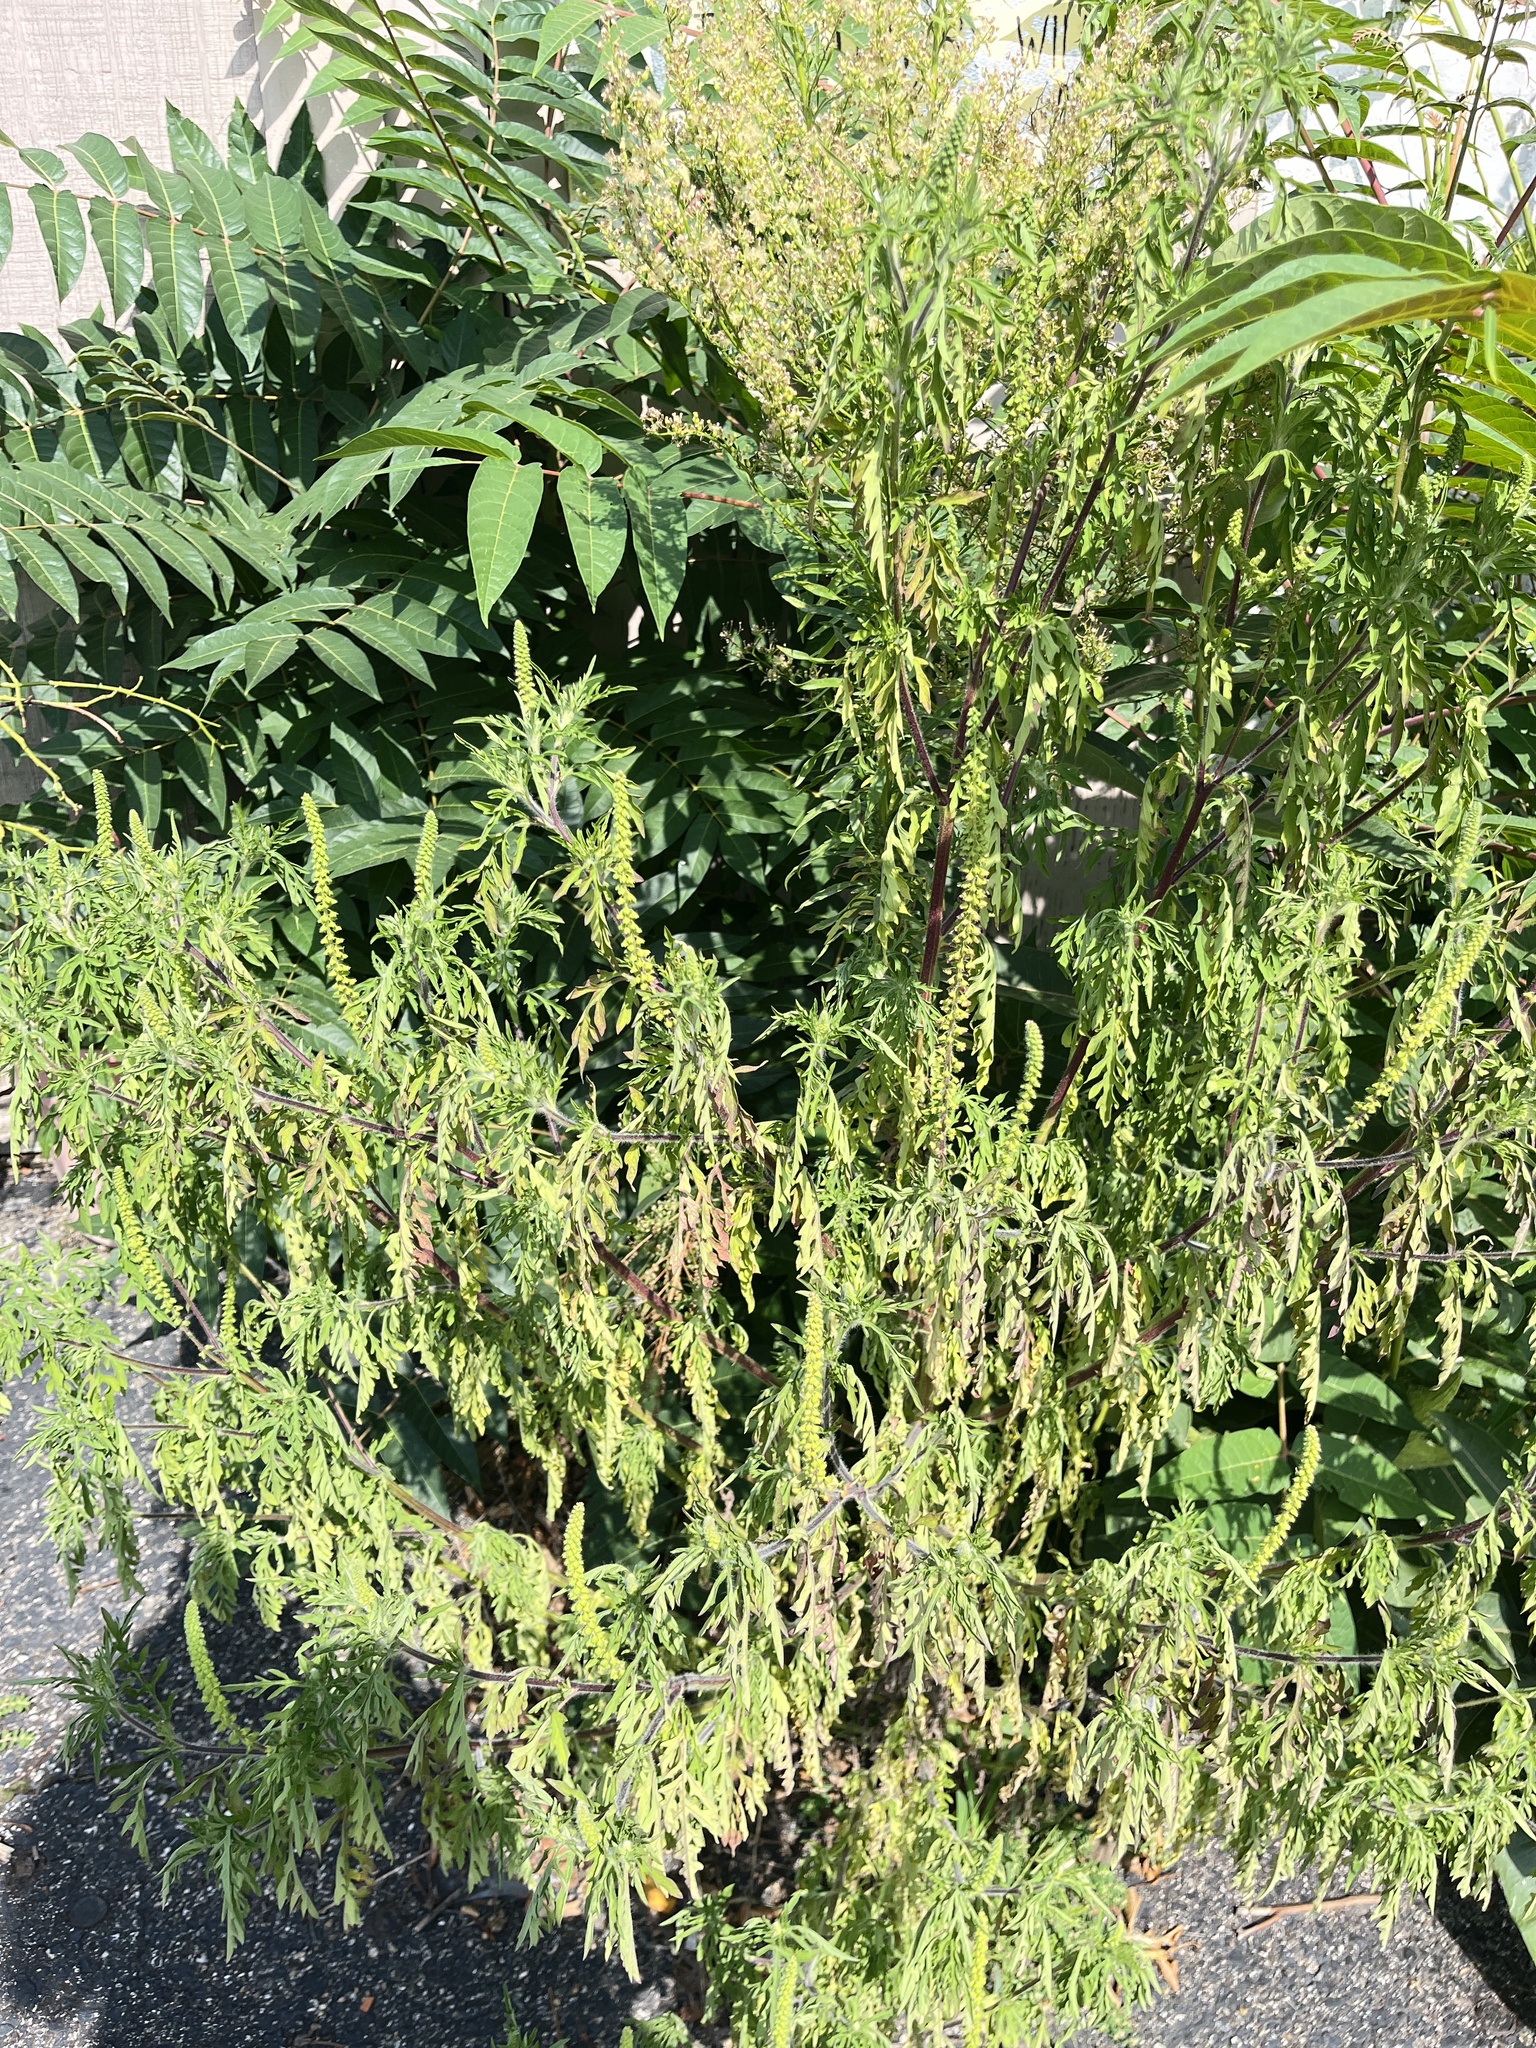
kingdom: Plantae
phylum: Tracheophyta
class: Magnoliopsida
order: Asterales
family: Asteraceae
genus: Ambrosia
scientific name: Ambrosia artemisiifolia
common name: Annual ragweed
